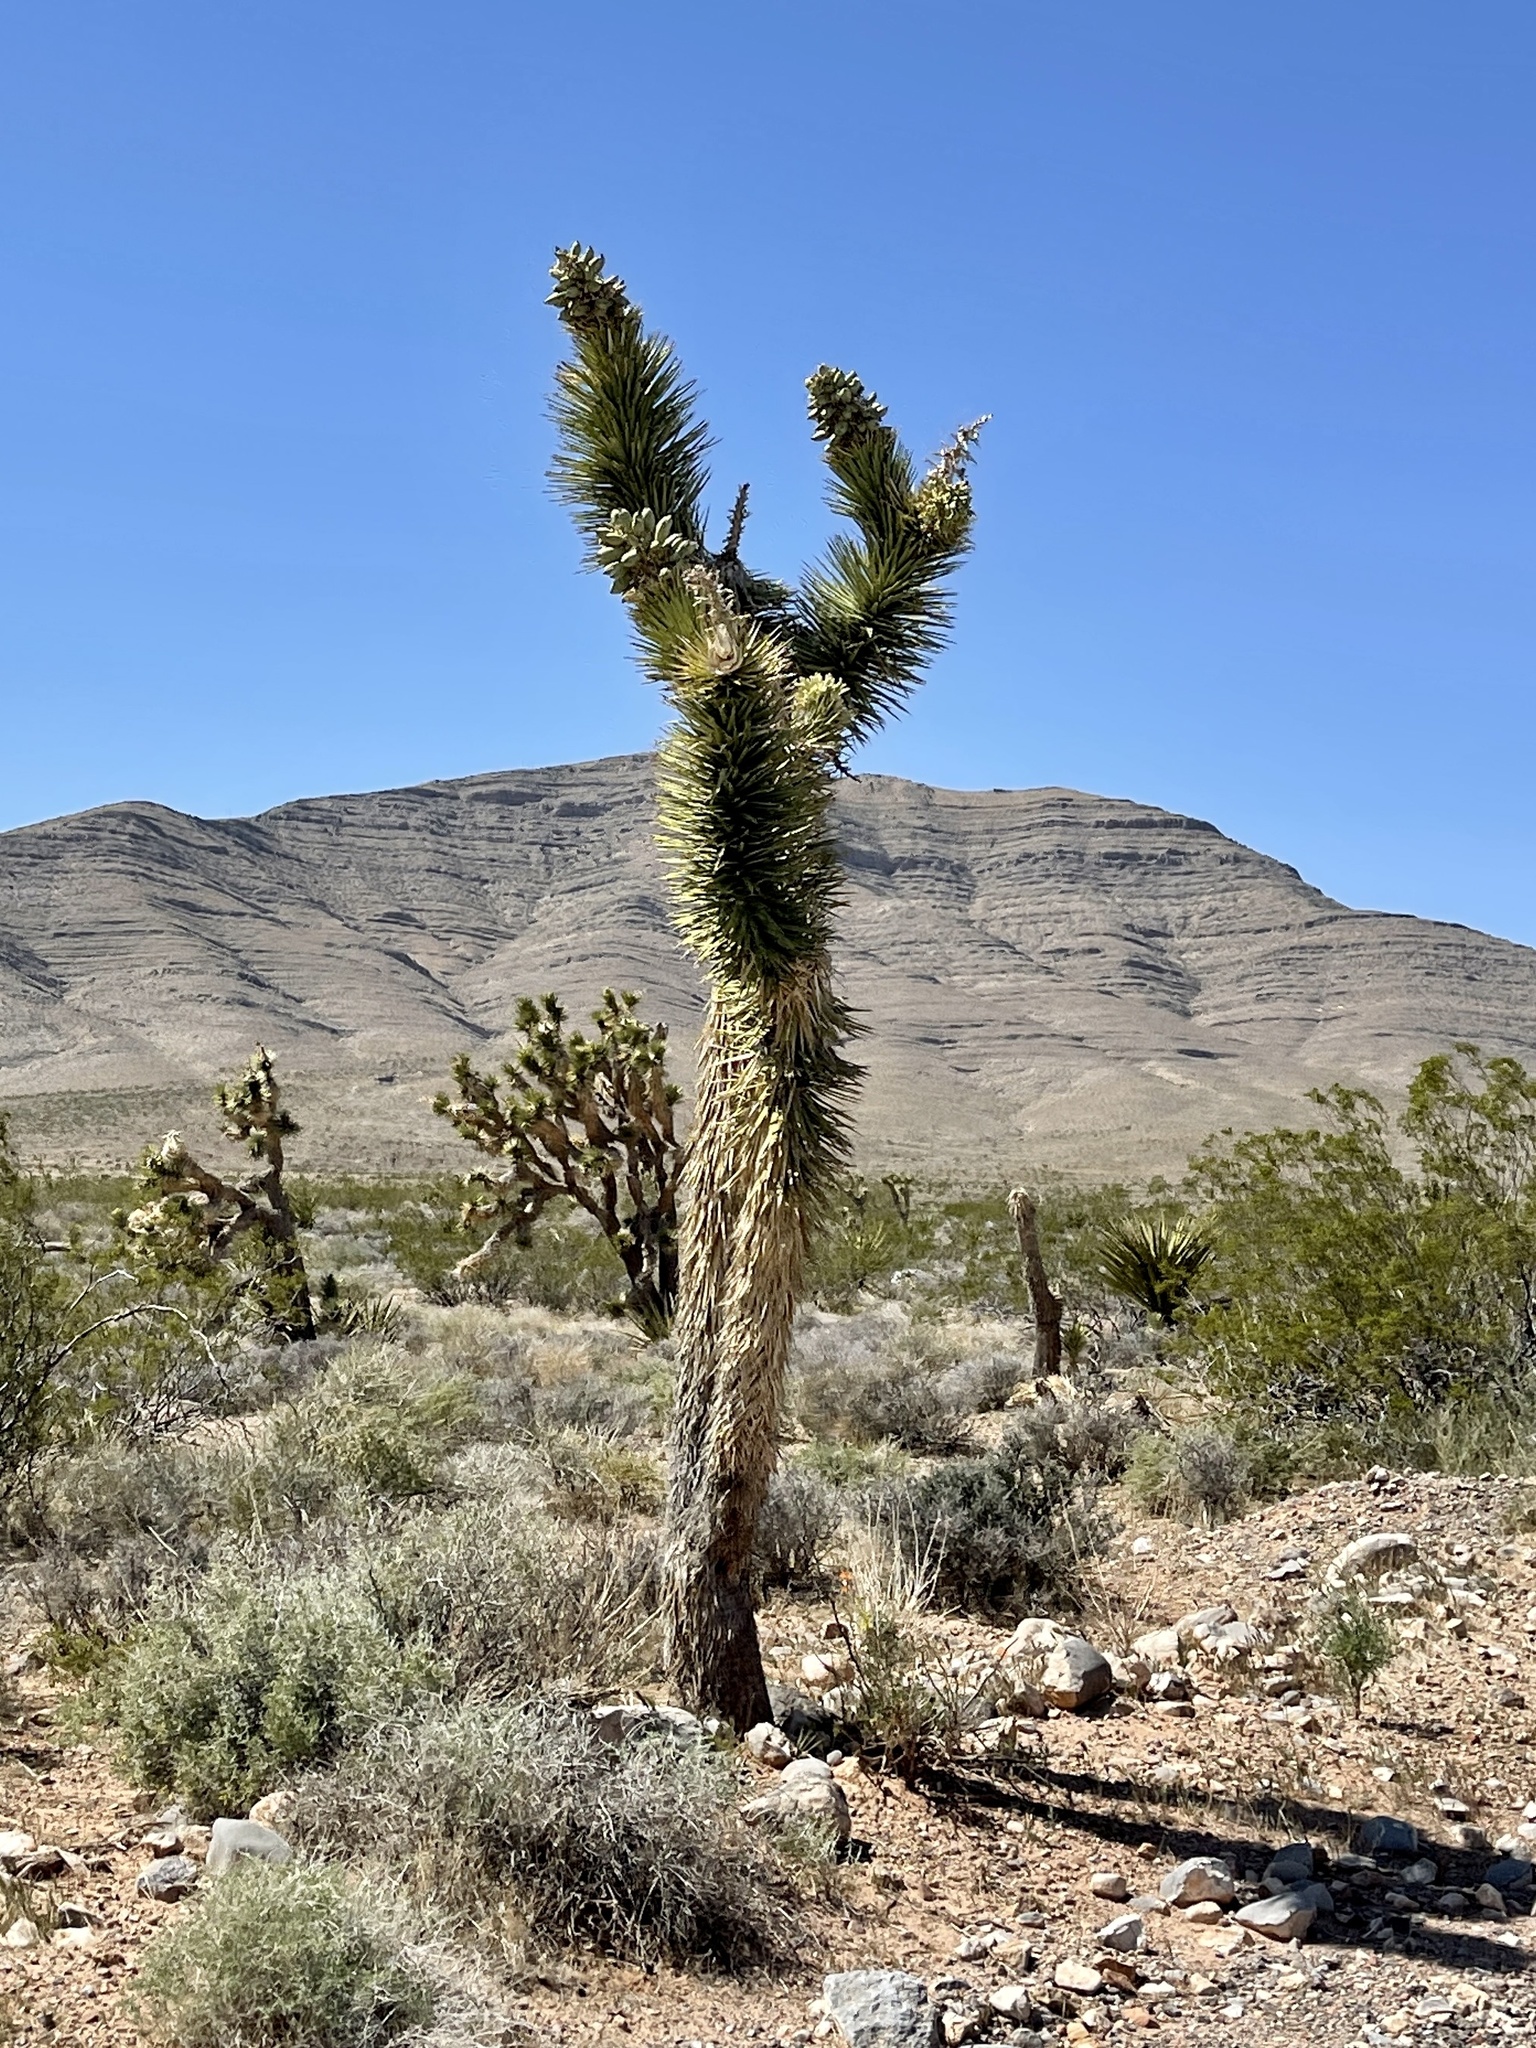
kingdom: Plantae
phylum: Tracheophyta
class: Liliopsida
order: Asparagales
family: Asparagaceae
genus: Yucca
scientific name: Yucca brevifolia
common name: Joshua tree
